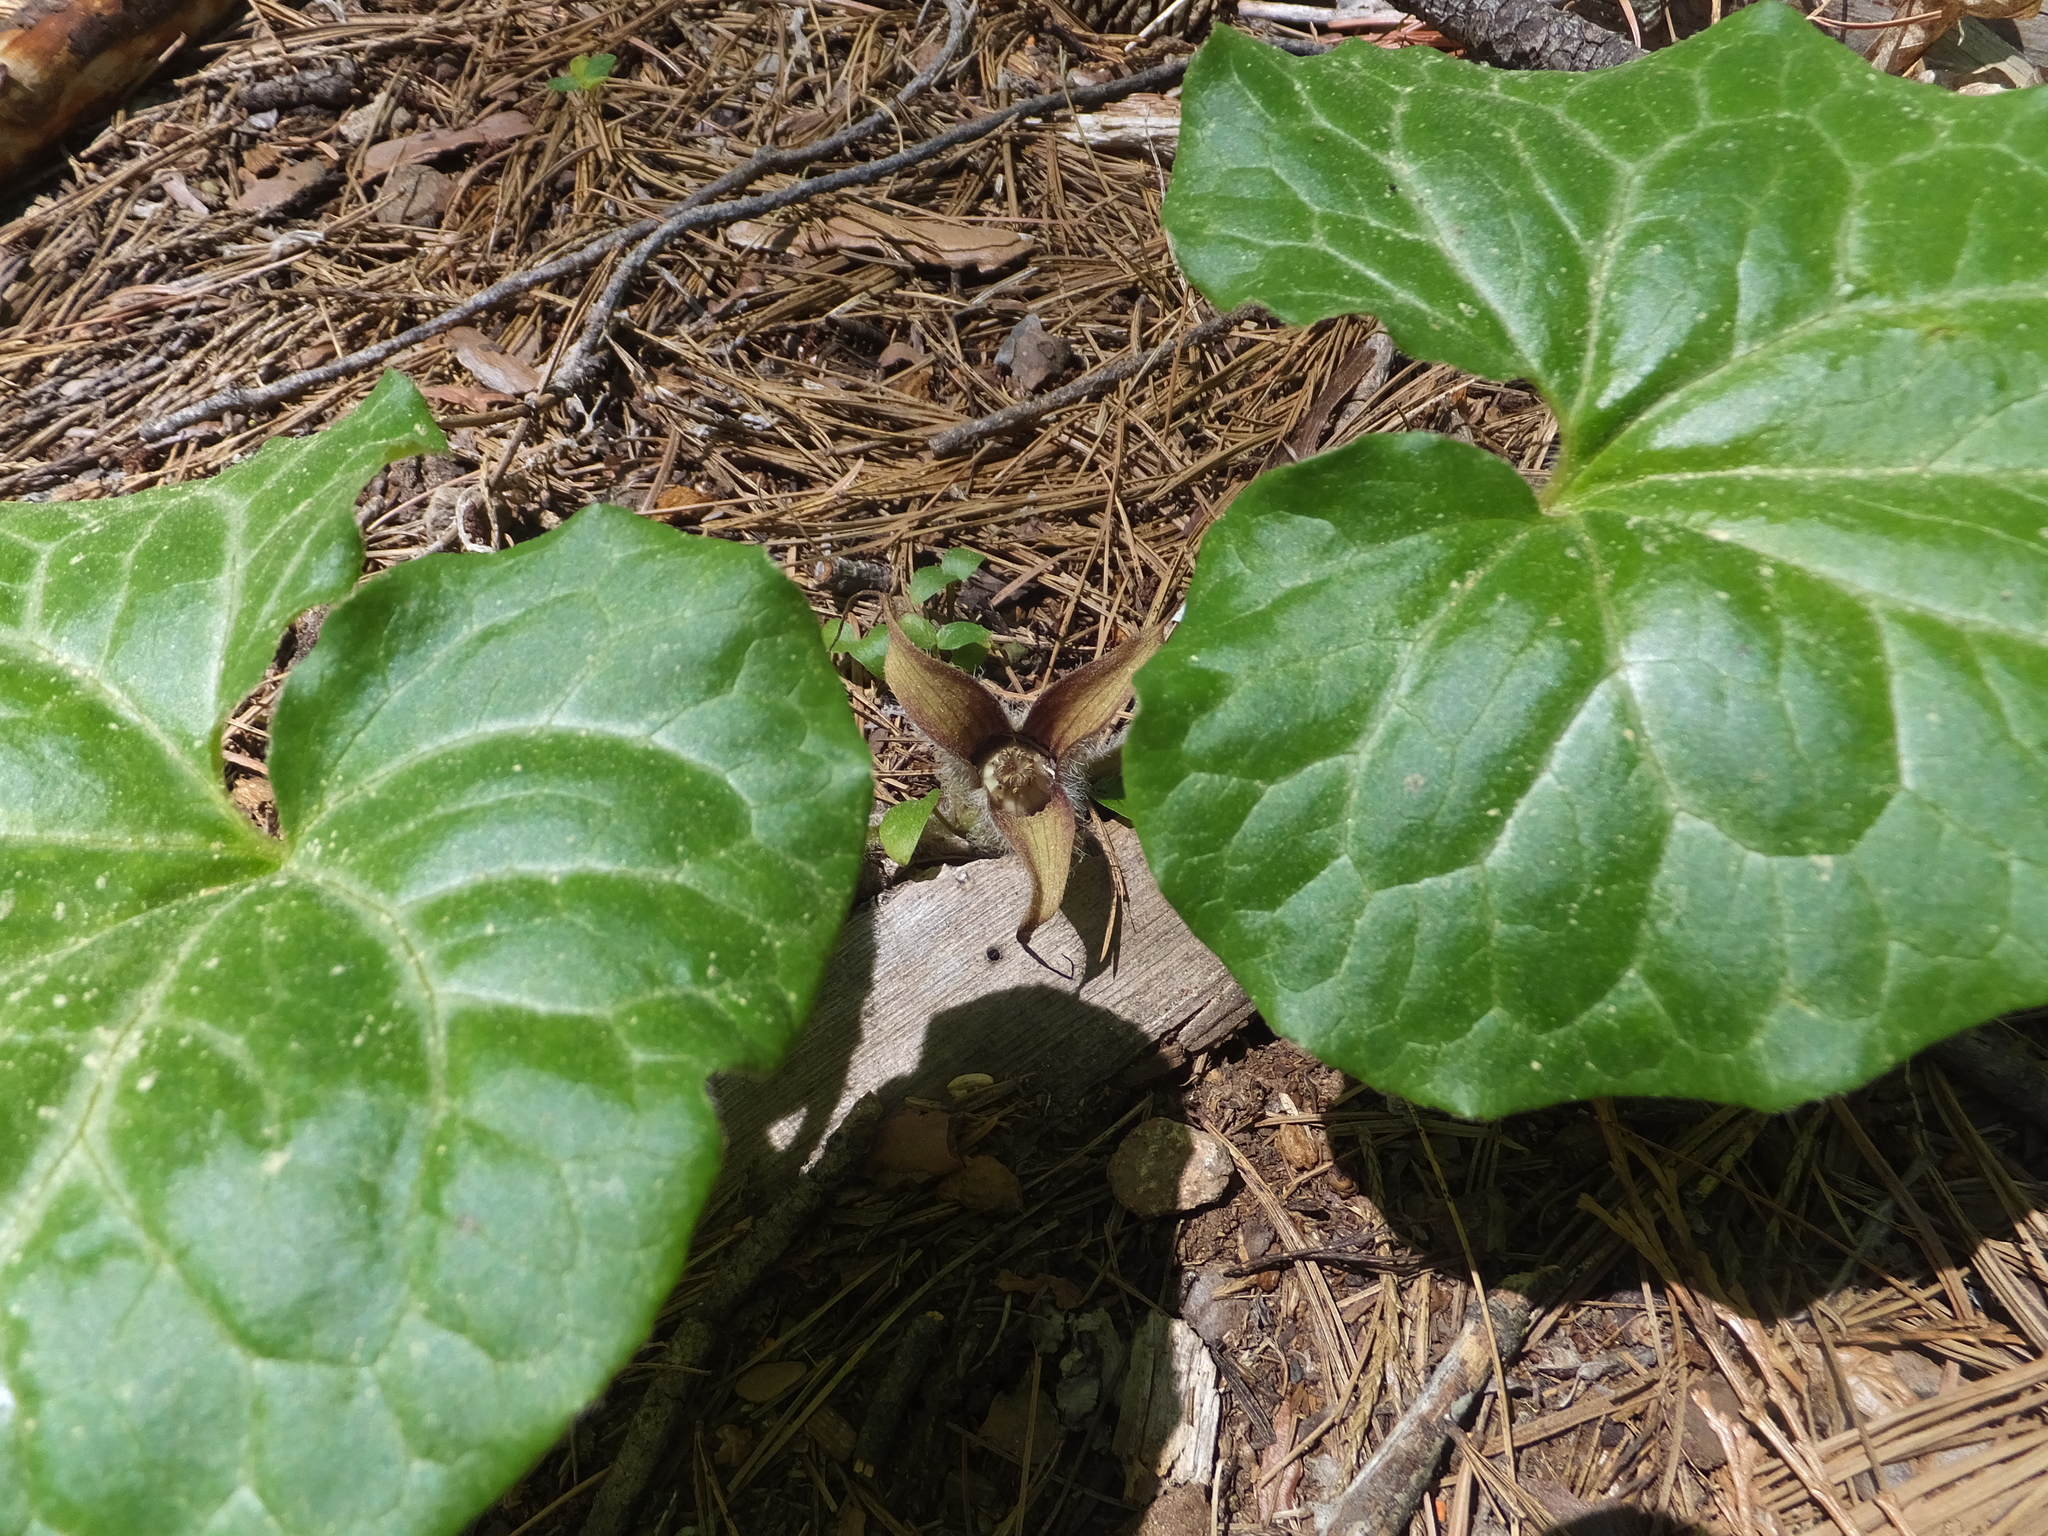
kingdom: Plantae
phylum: Tracheophyta
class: Magnoliopsida
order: Piperales
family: Aristolochiaceae
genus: Asarum
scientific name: Asarum hartwegii
